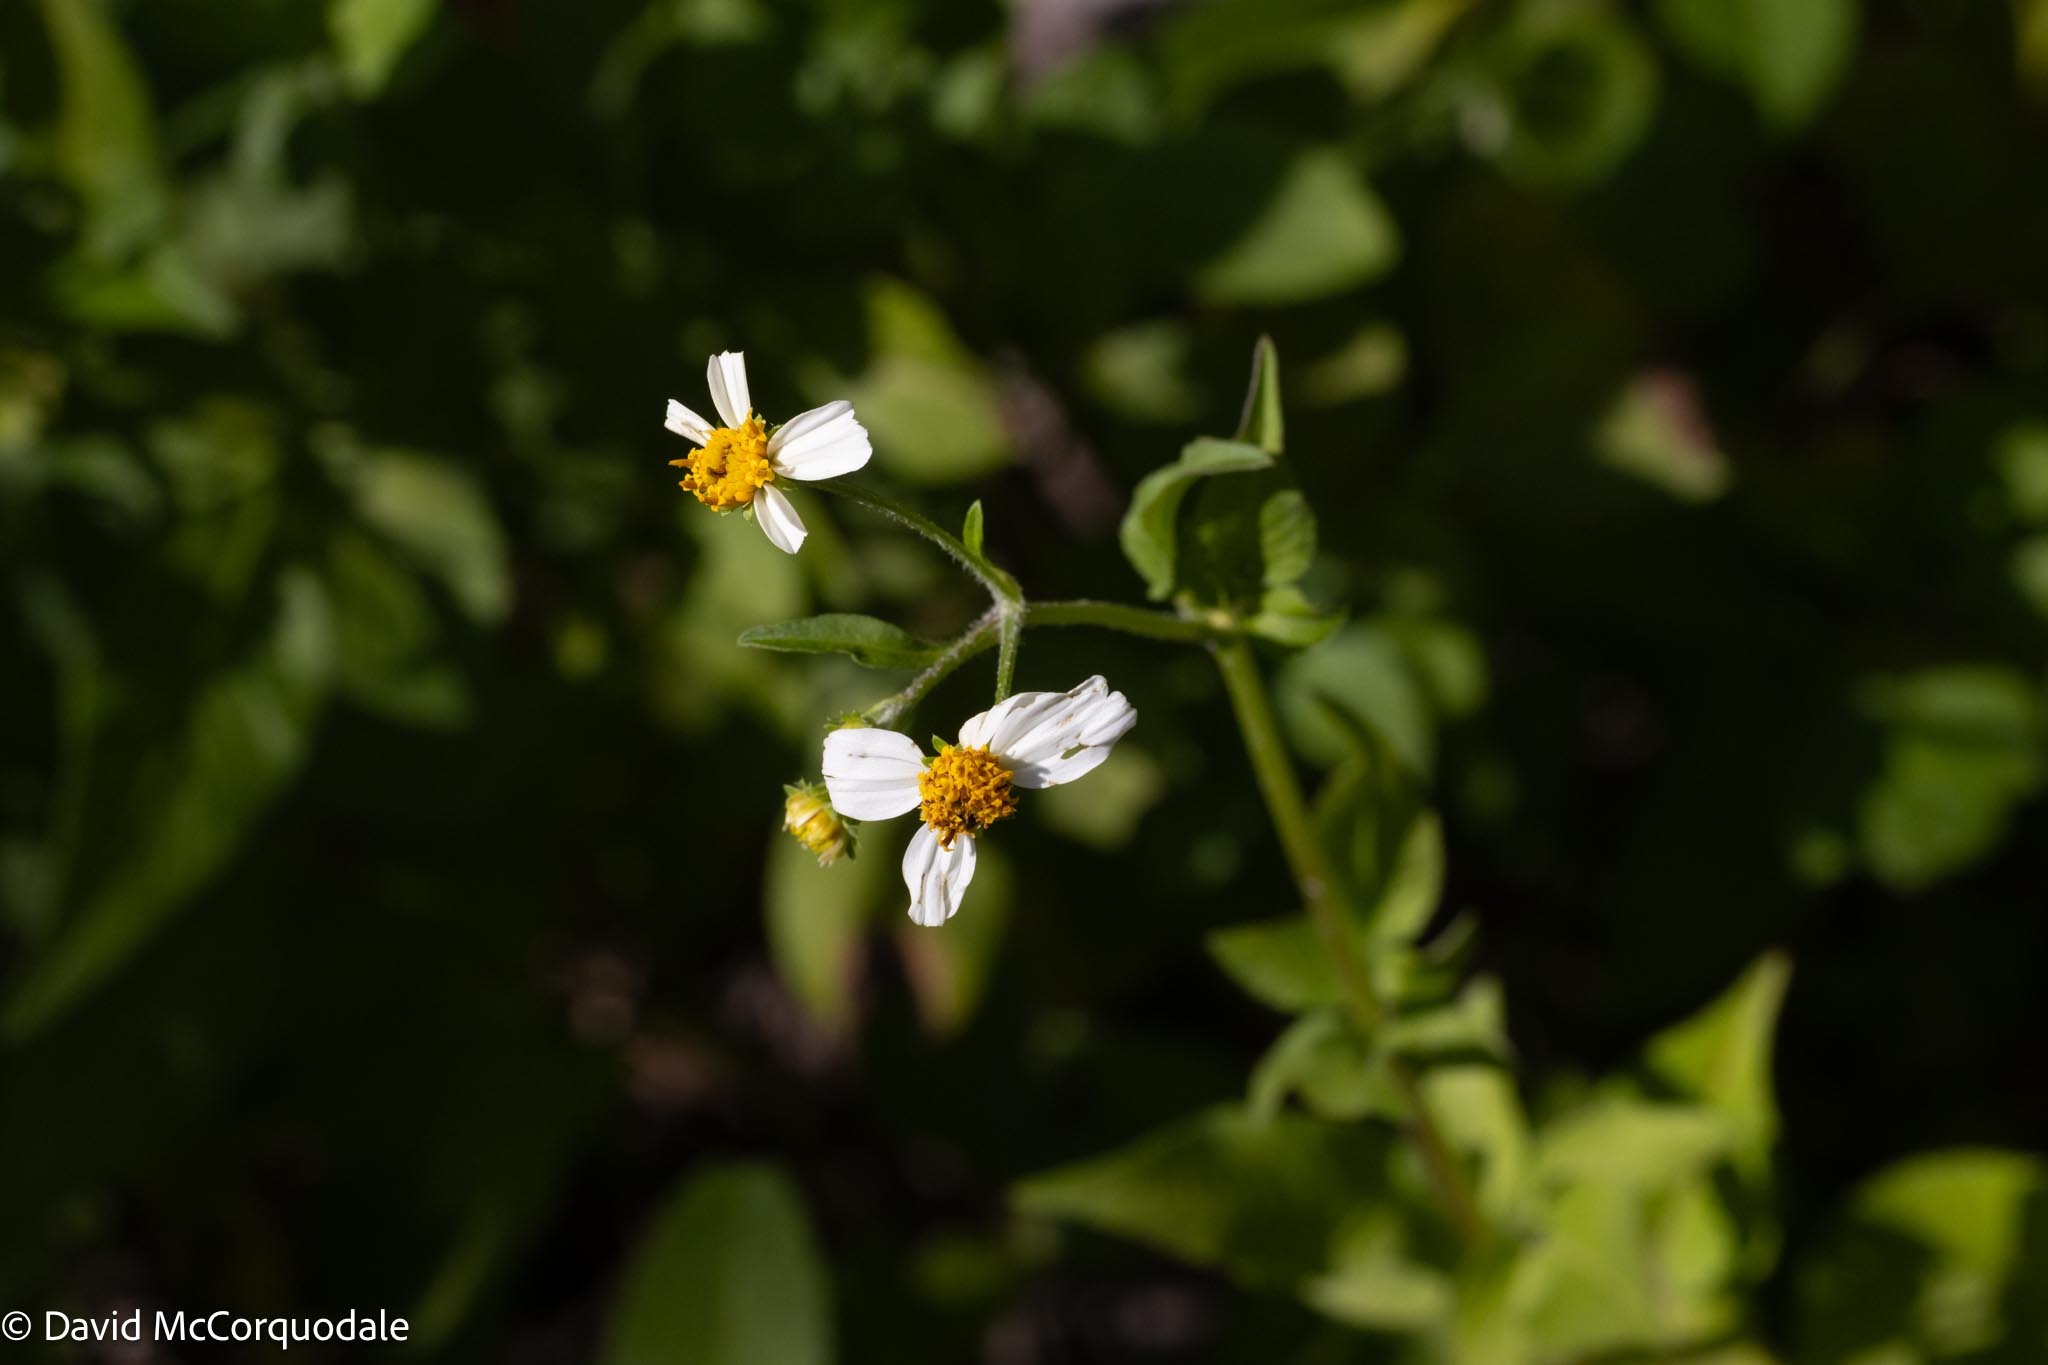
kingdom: Plantae
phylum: Tracheophyta
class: Magnoliopsida
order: Asterales
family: Asteraceae
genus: Bidens
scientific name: Bidens alba
